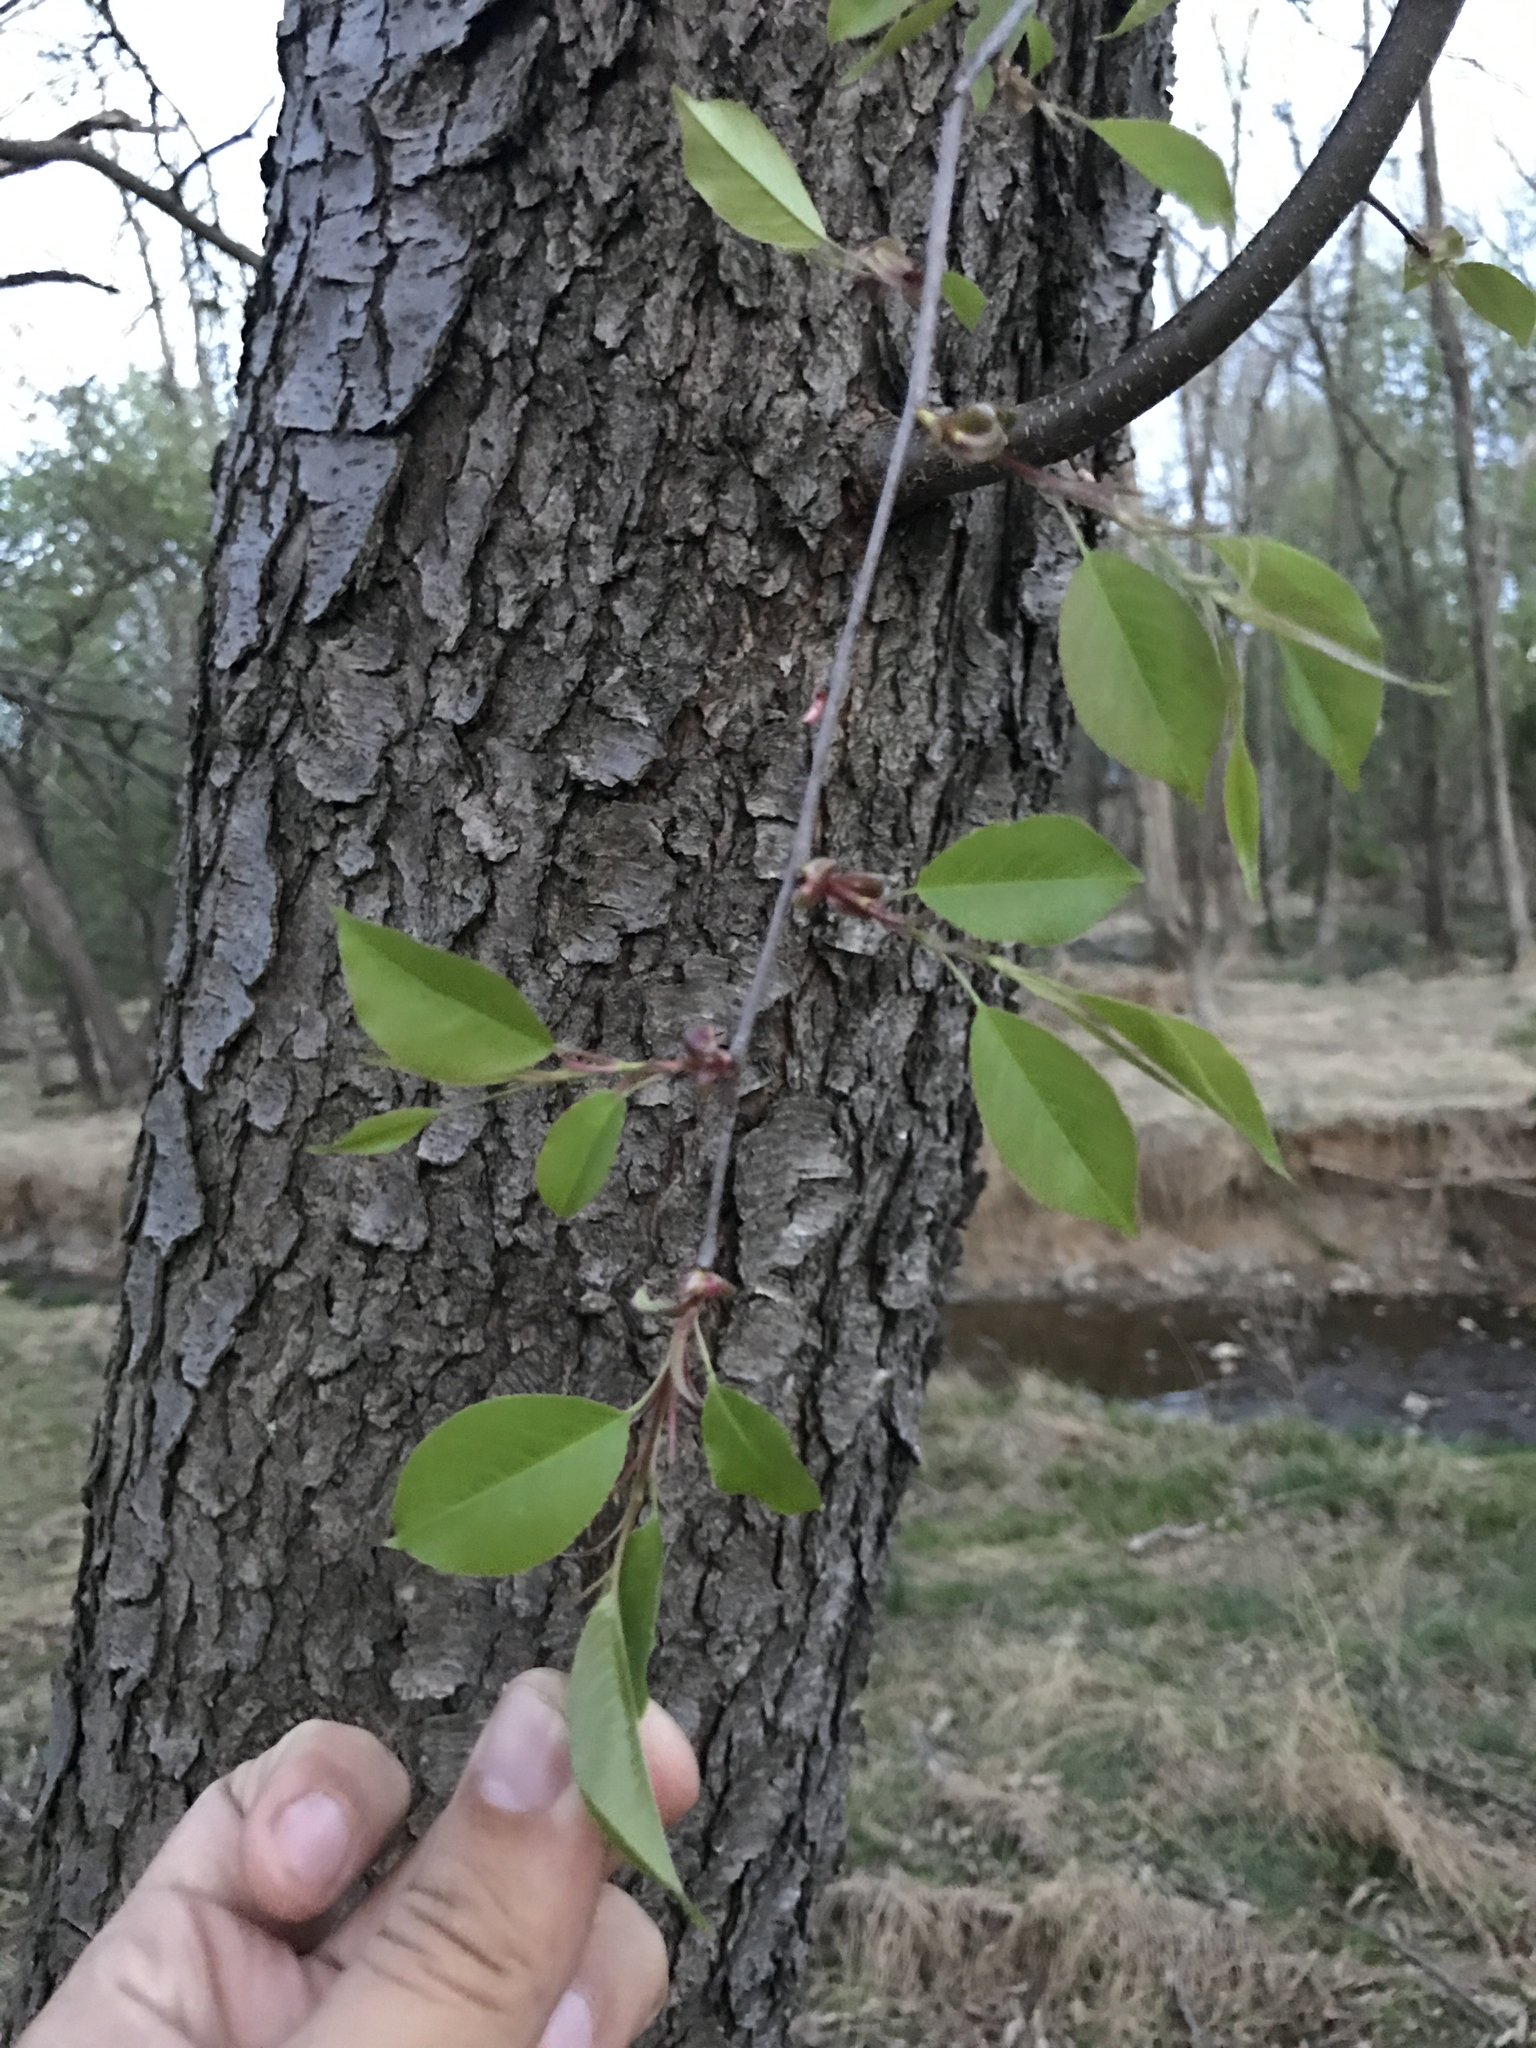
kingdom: Plantae
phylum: Tracheophyta
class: Magnoliopsida
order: Rosales
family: Rosaceae
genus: Prunus
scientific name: Prunus serotina
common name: Black cherry
